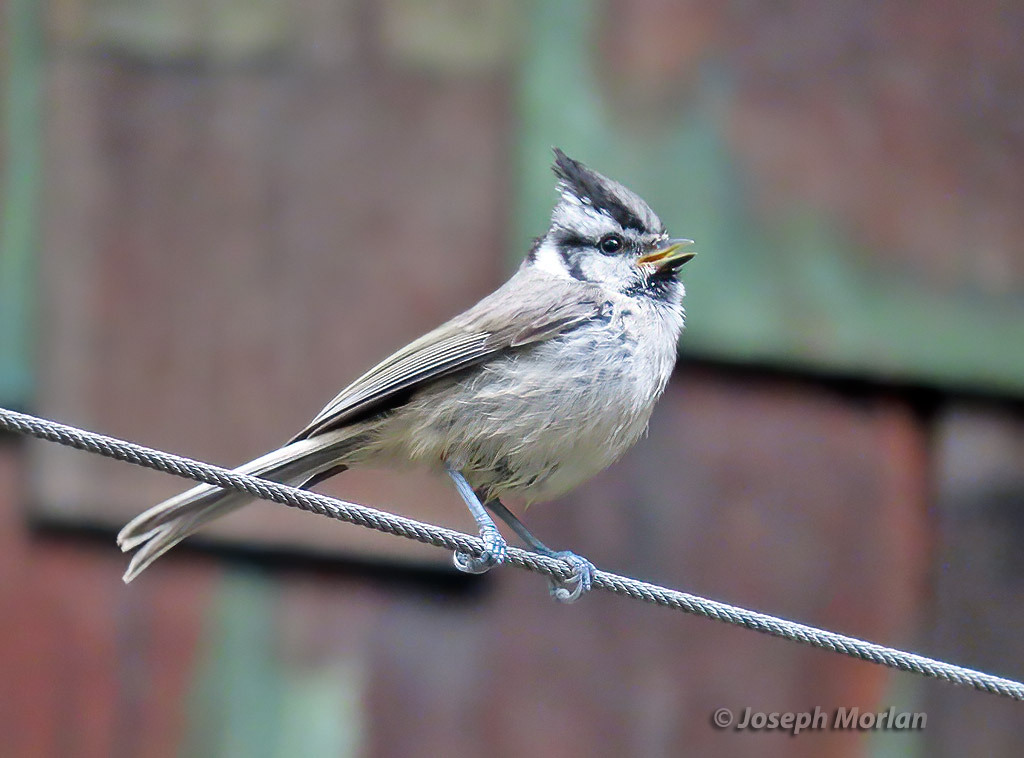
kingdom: Animalia
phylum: Chordata
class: Aves
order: Passeriformes
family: Paridae
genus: Baeolophus
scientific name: Baeolophus wollweberi
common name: Bridled titmouse
